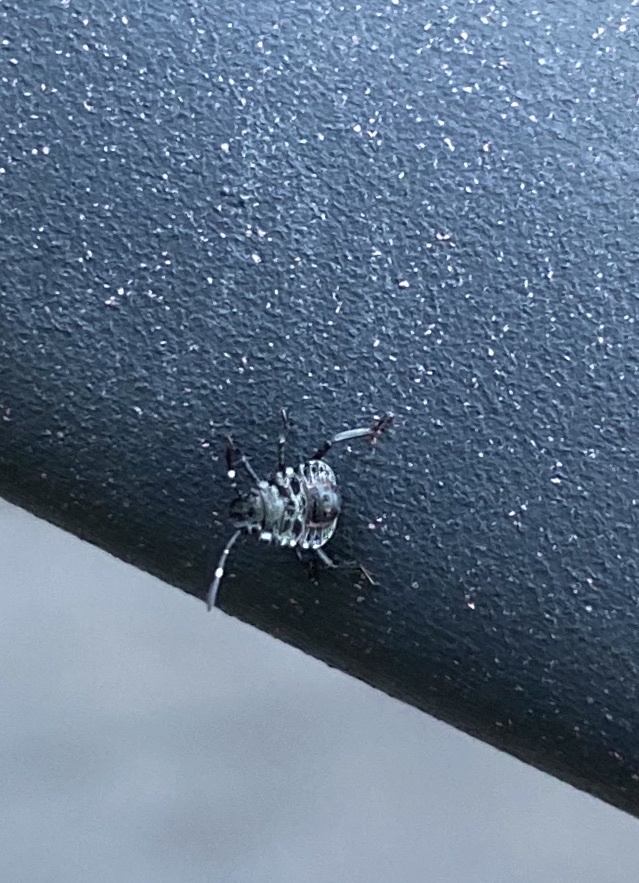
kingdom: Animalia
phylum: Arthropoda
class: Insecta
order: Hemiptera
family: Pentatomidae
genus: Halyomorpha
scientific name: Halyomorpha halys
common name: Brown marmorated stink bug
